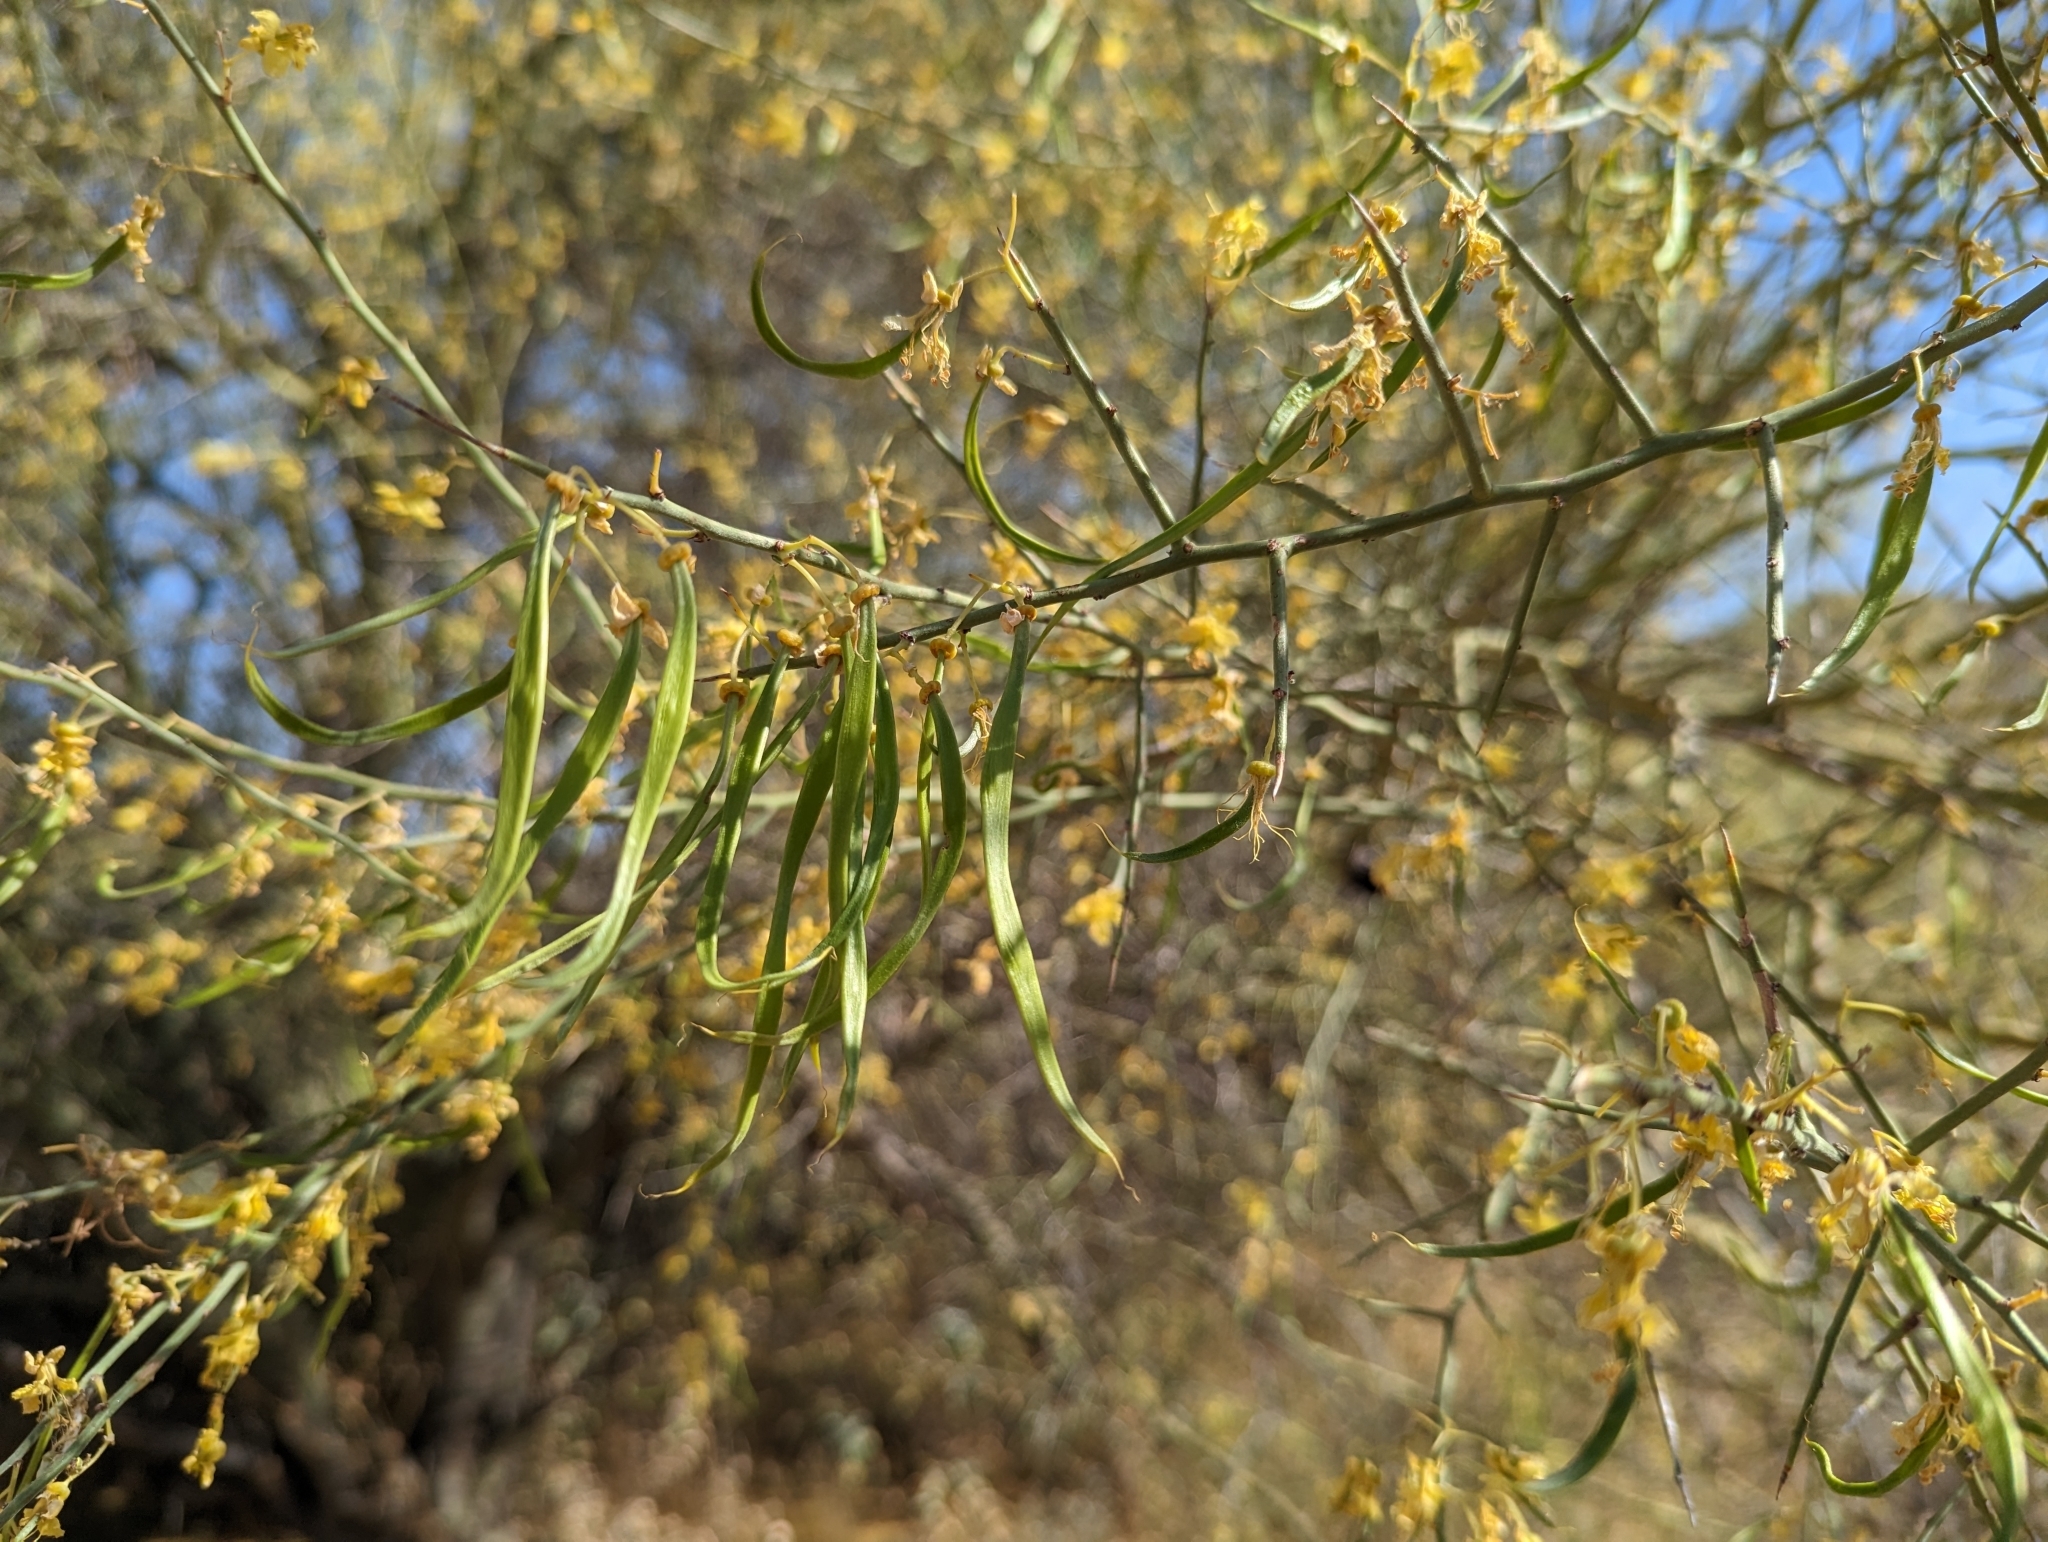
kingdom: Plantae
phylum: Tracheophyta
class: Magnoliopsida
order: Fabales
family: Fabaceae
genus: Parkinsonia
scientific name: Parkinsonia microphylla
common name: Yellow paloverde
